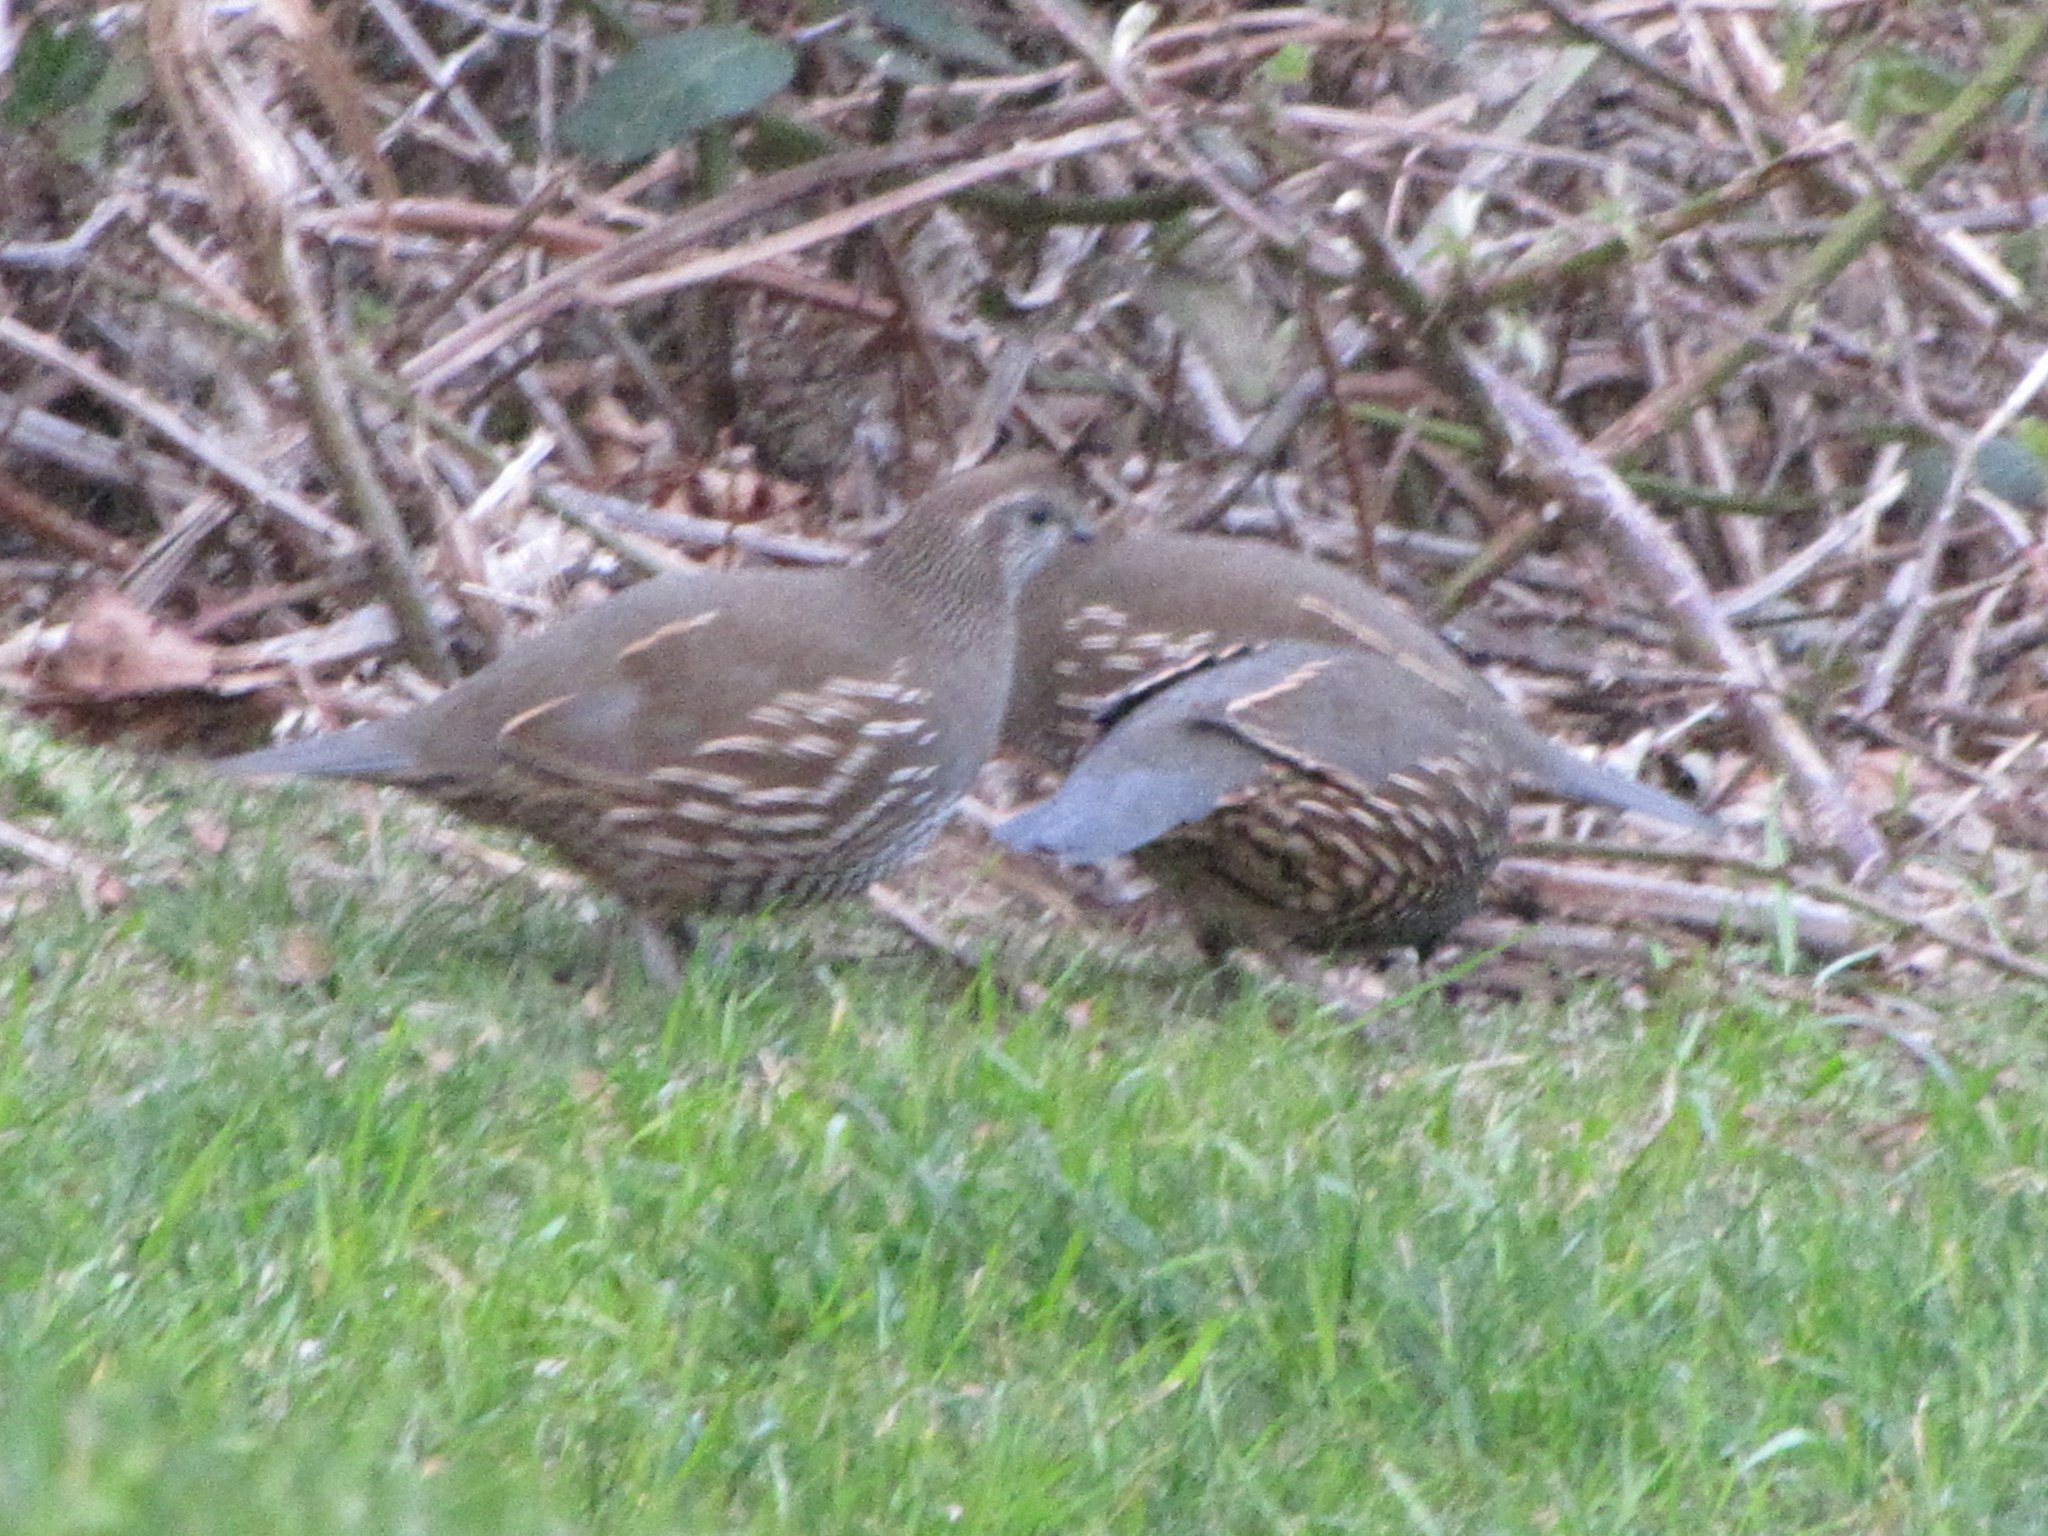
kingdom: Animalia
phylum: Chordata
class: Aves
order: Galliformes
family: Odontophoridae
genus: Callipepla
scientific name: Callipepla californica
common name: California quail
